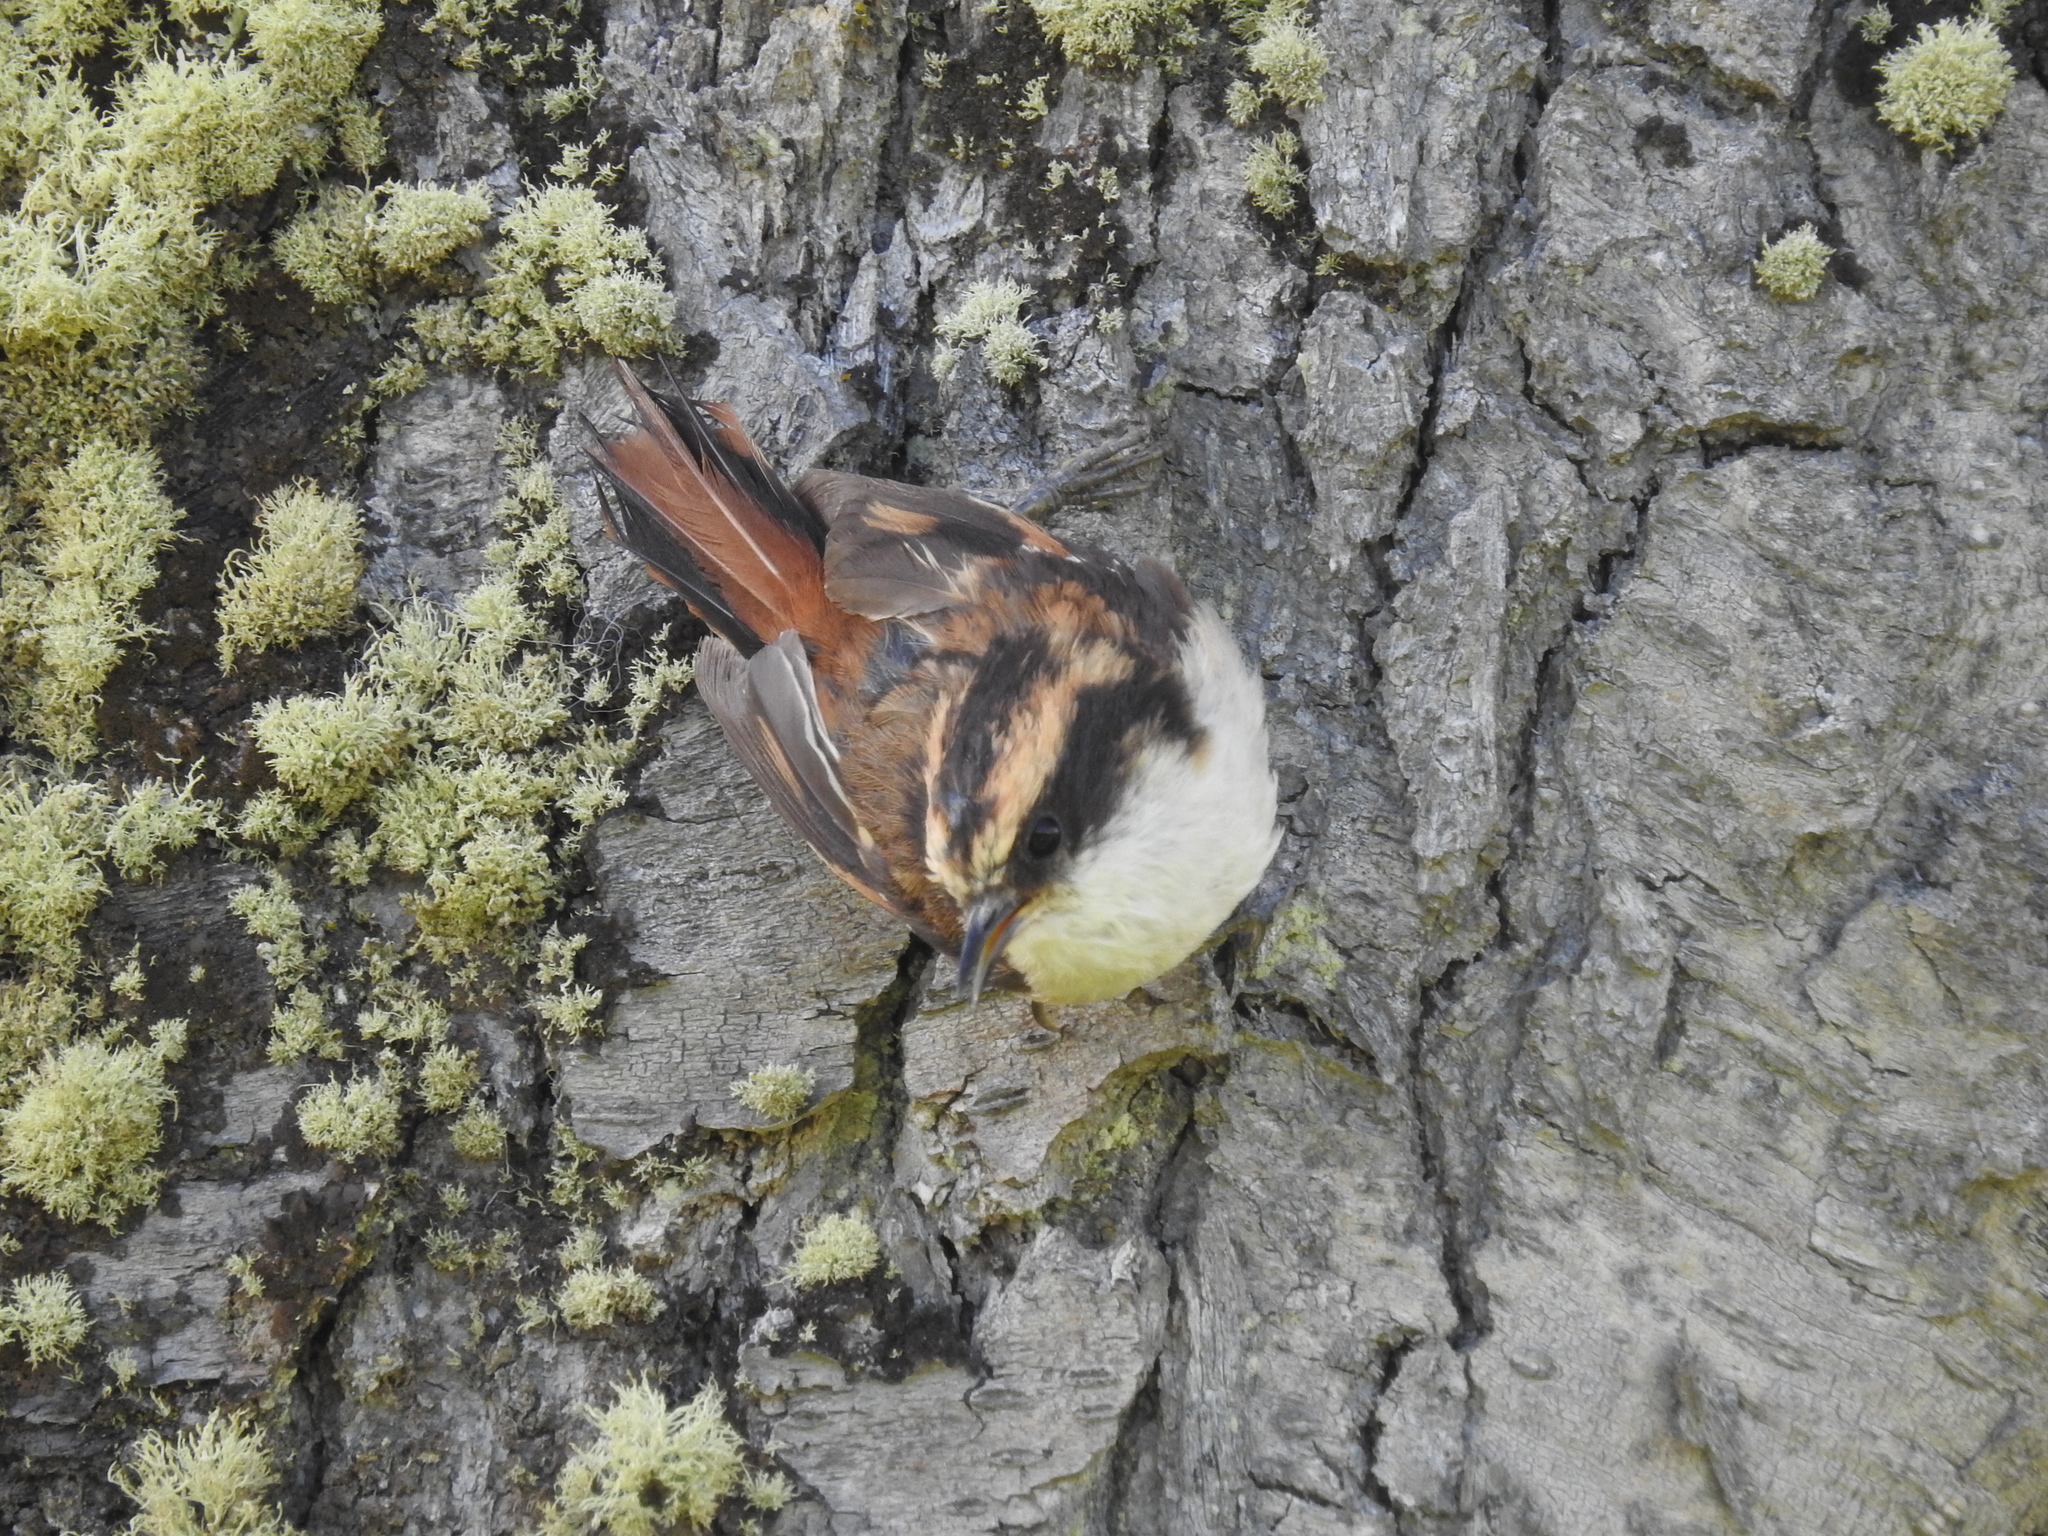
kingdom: Animalia
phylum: Chordata
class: Aves
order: Passeriformes
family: Furnariidae
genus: Aphrastura
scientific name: Aphrastura spinicauda
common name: Thorn-tailed rayadito
